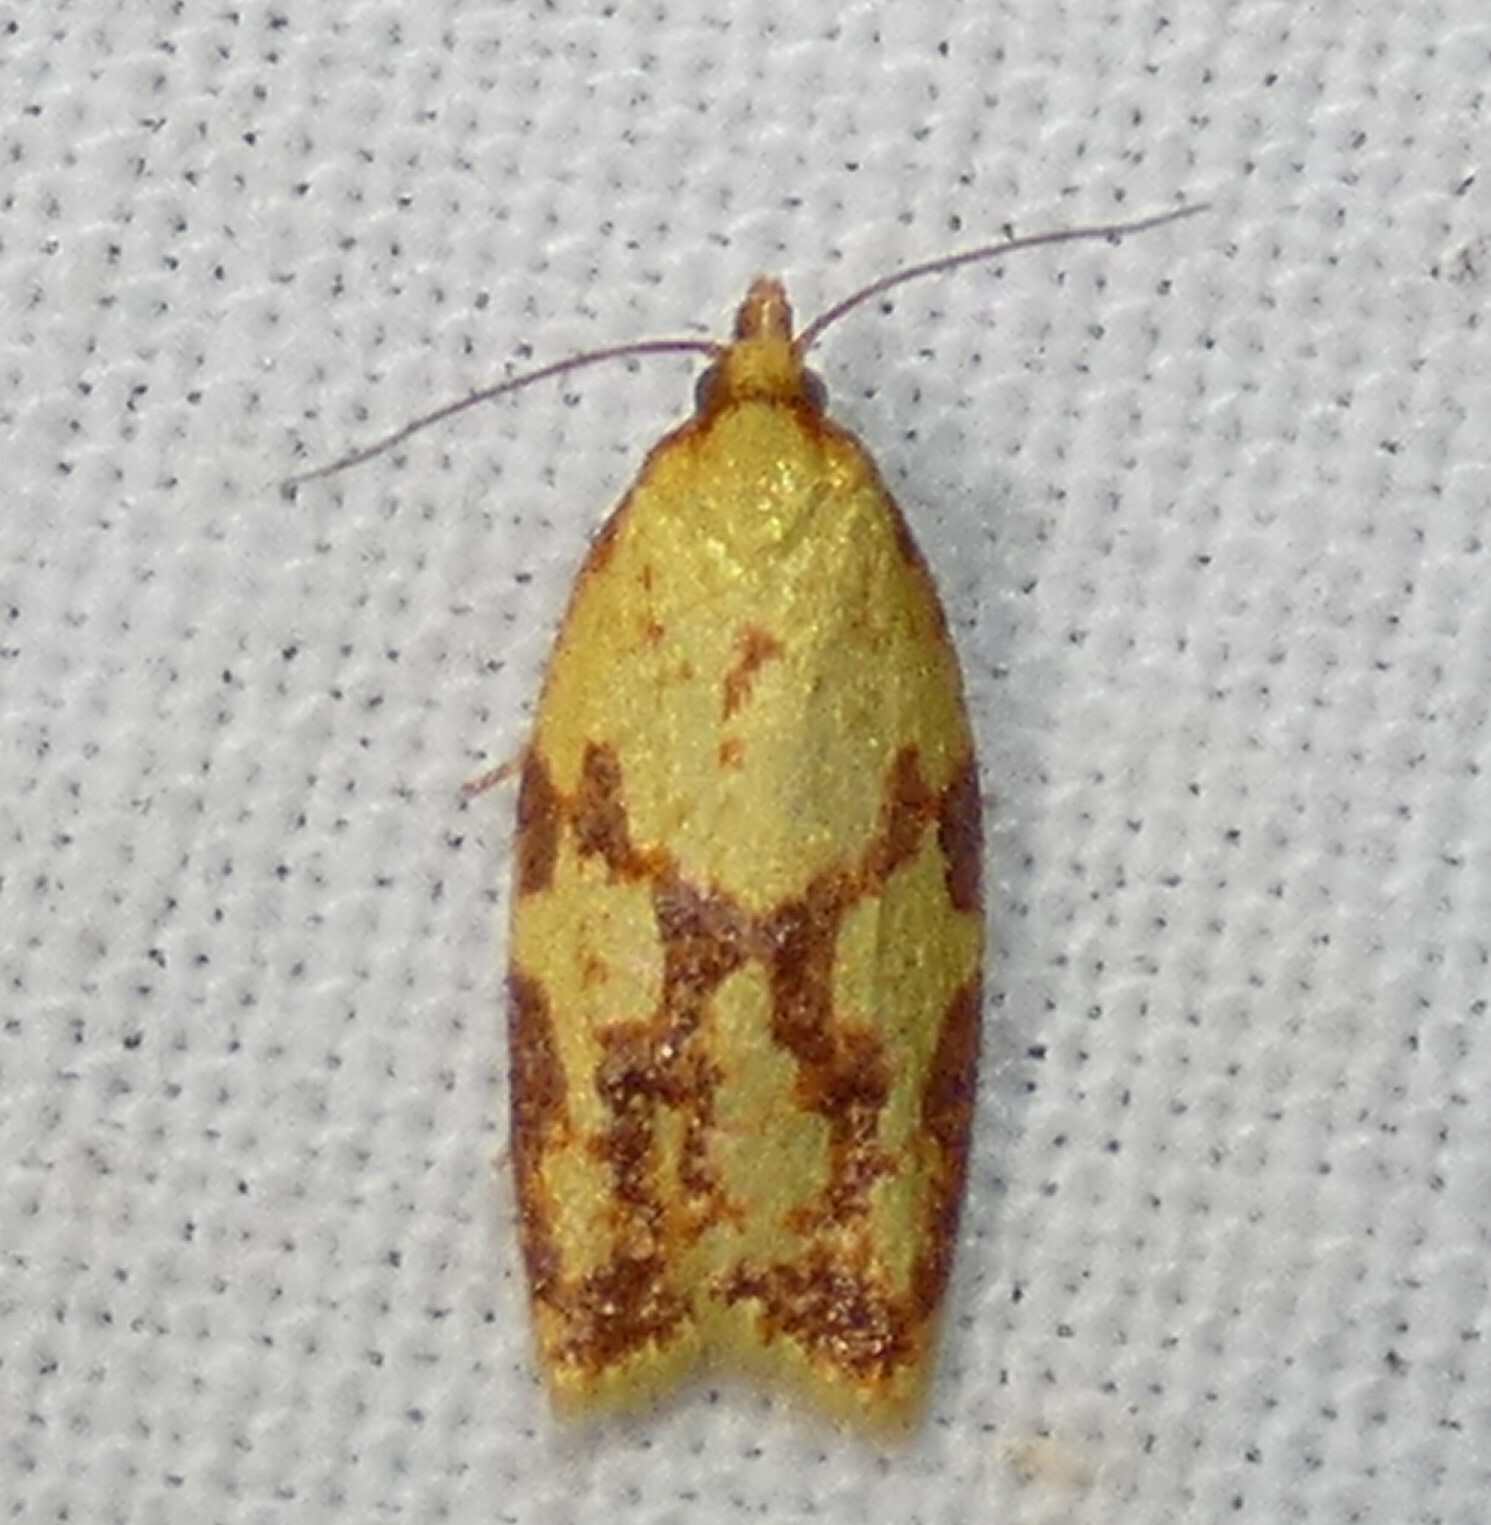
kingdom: Animalia
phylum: Arthropoda
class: Insecta
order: Lepidoptera
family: Tortricidae
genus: Sparganothis
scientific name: Sparganothis sulfureana
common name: Sparganothis fruitworm moth
